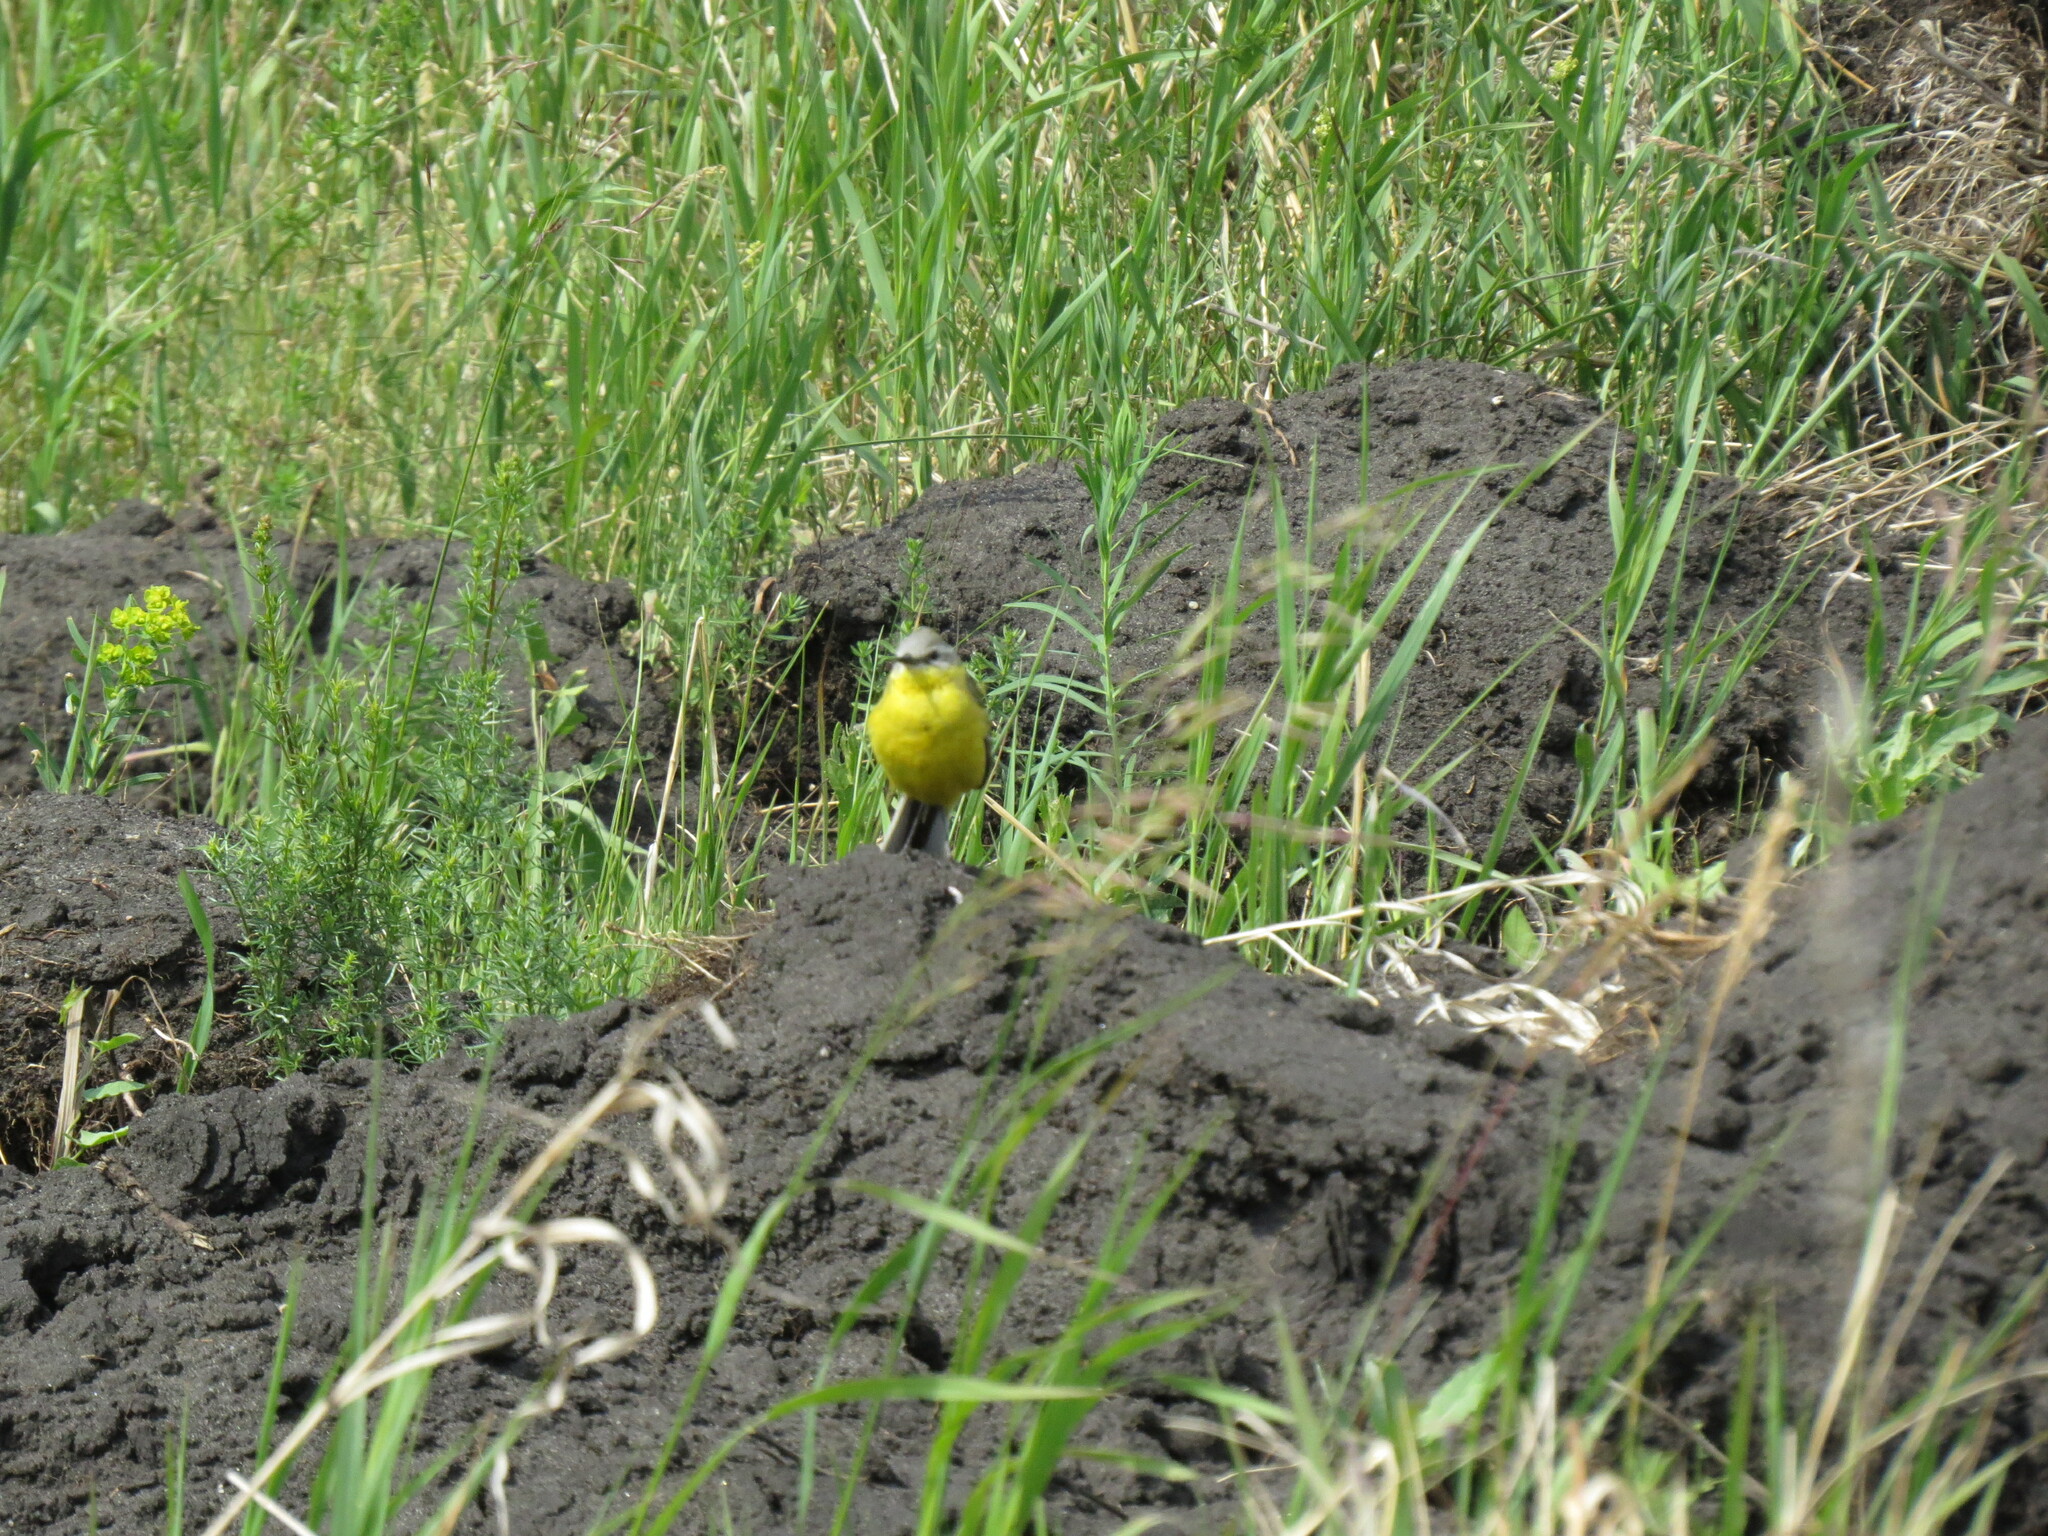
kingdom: Animalia
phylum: Chordata
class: Aves
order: Passeriformes
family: Motacillidae
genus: Motacilla
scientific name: Motacilla flava
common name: Western yellow wagtail
